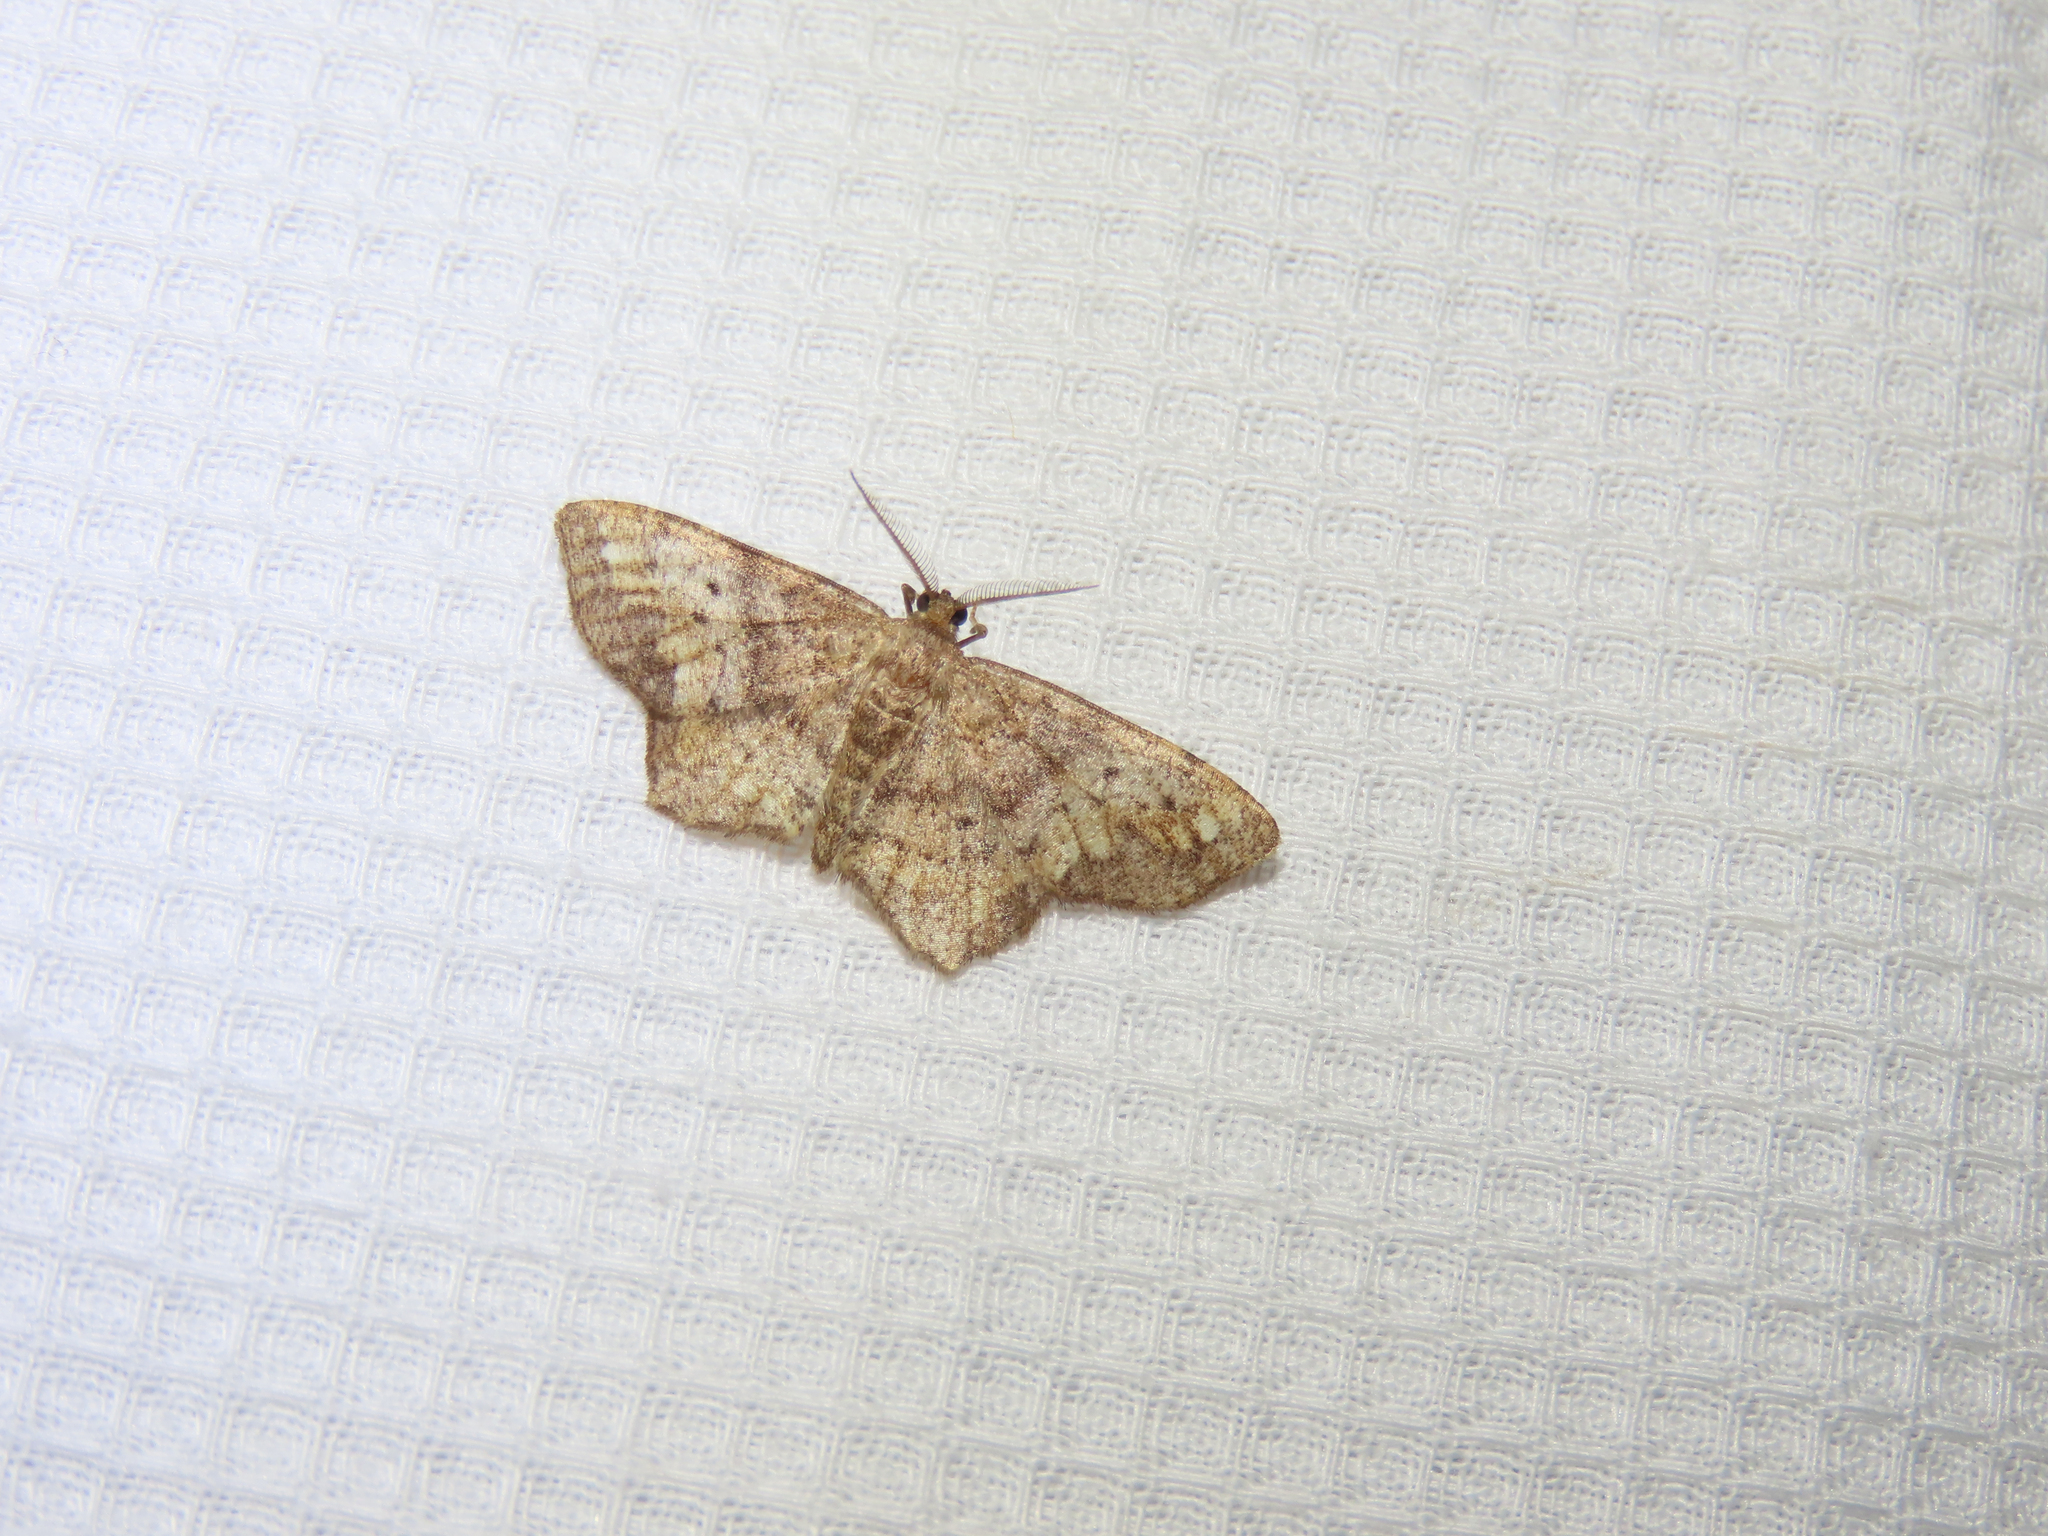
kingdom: Animalia
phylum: Arthropoda
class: Insecta
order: Lepidoptera
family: Geometridae
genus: Hypagyrtis
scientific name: Hypagyrtis unipunctata
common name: One-spotted variant
